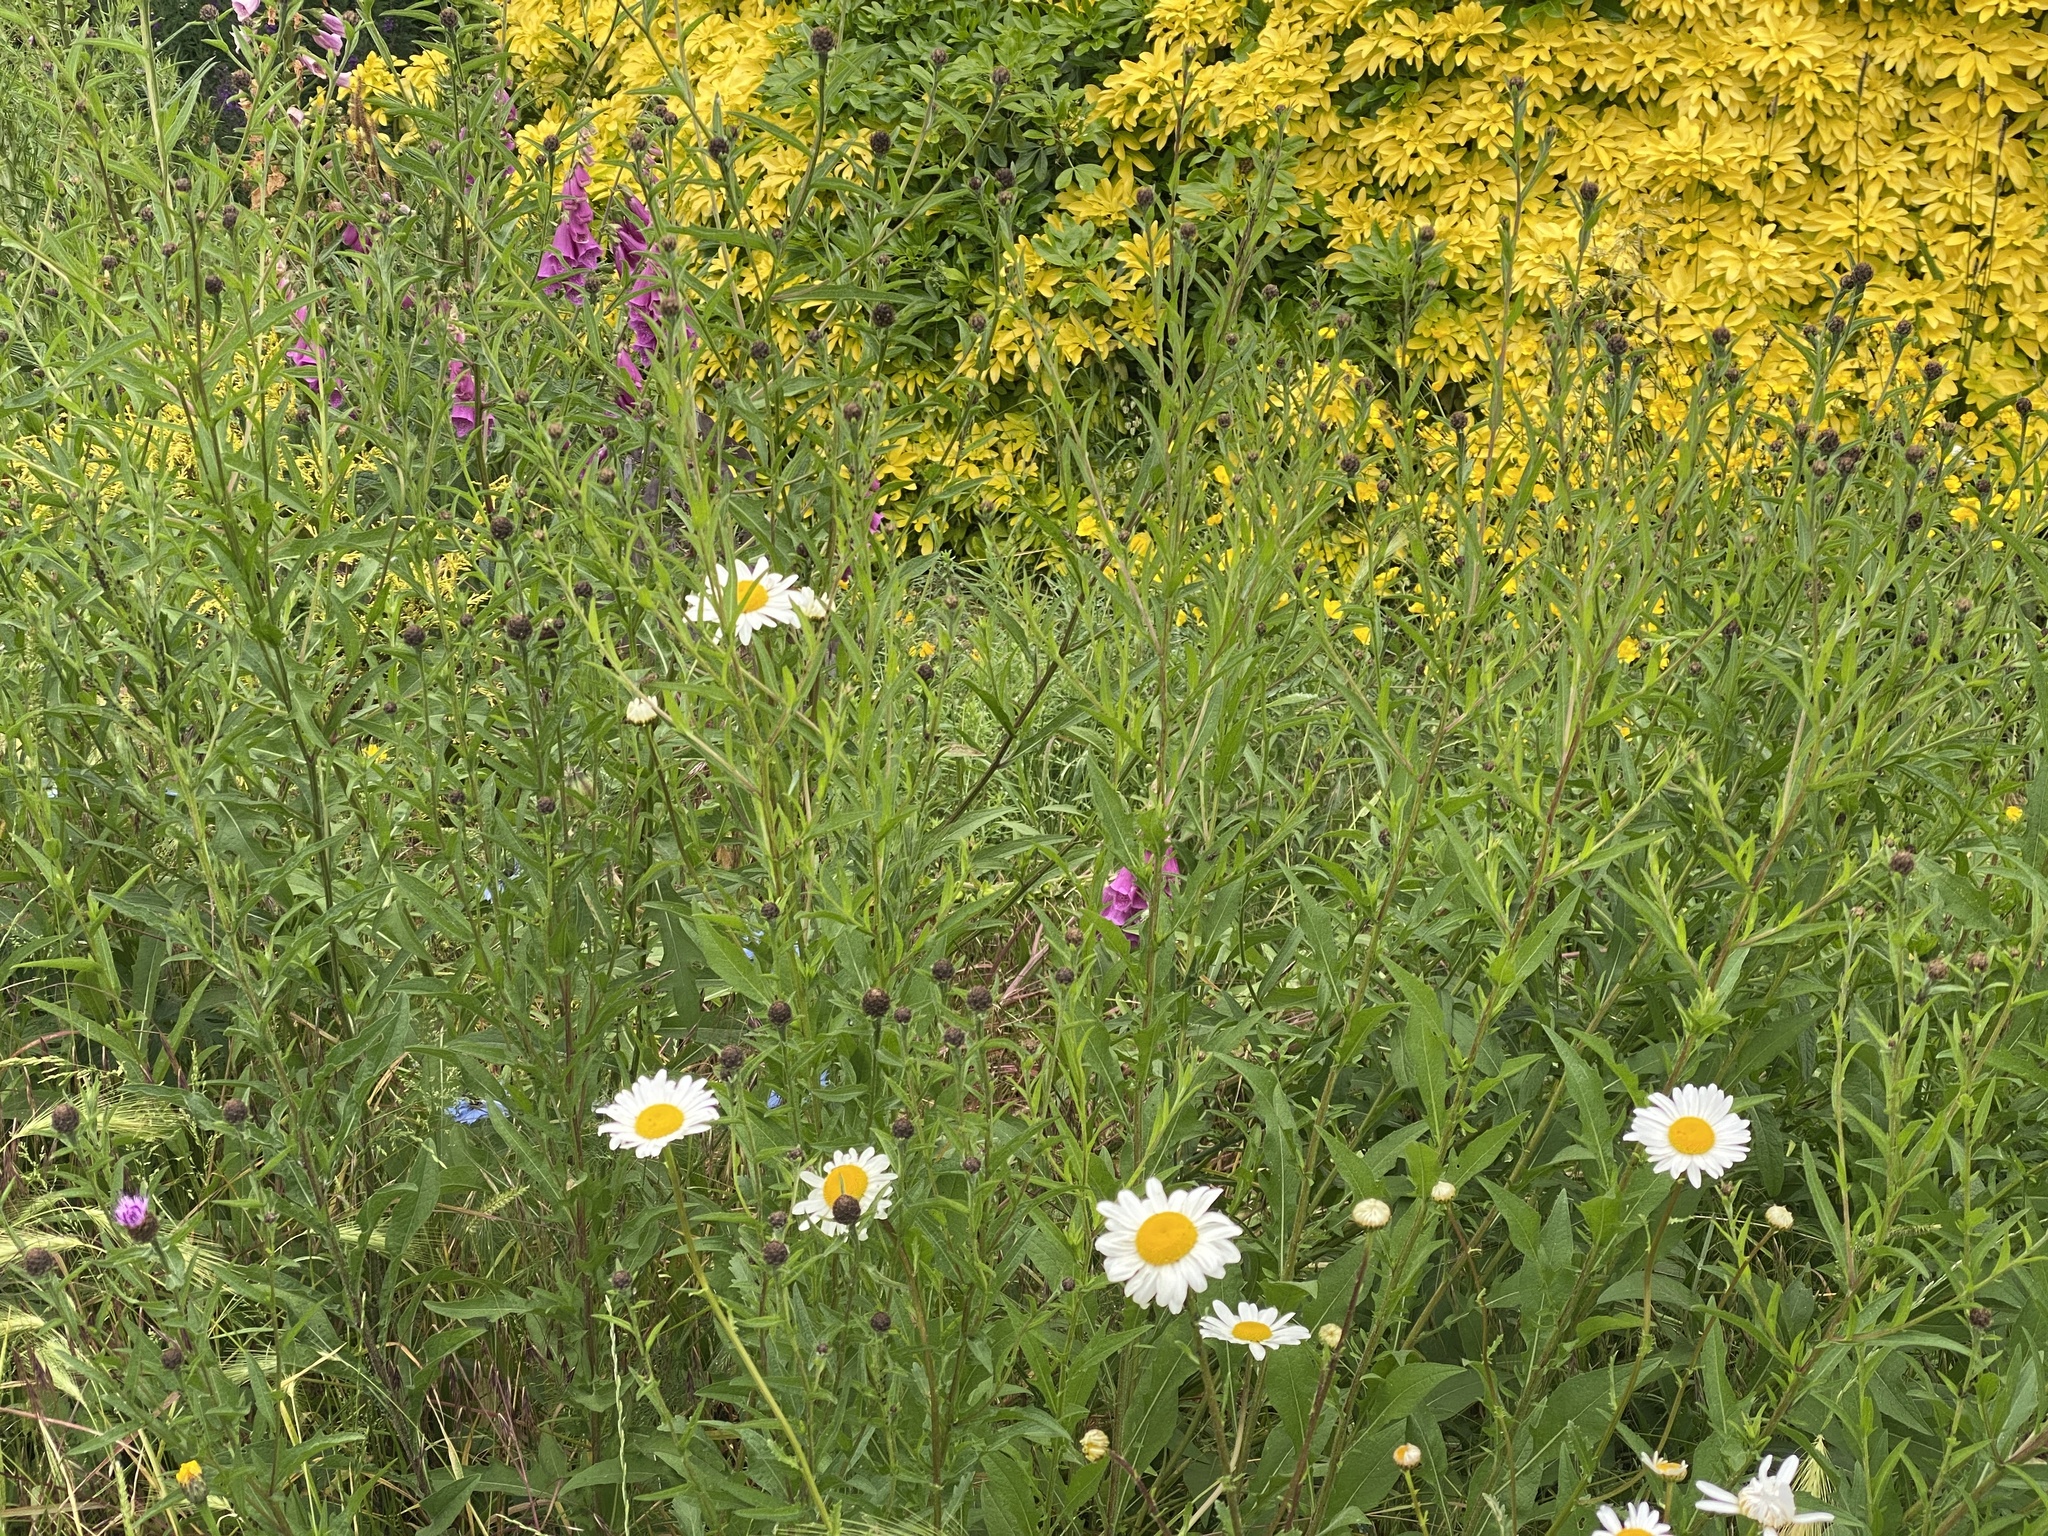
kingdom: Plantae
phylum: Tracheophyta
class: Magnoliopsida
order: Asterales
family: Asteraceae
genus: Centaurea
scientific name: Centaurea nigra
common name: Lesser knapweed
